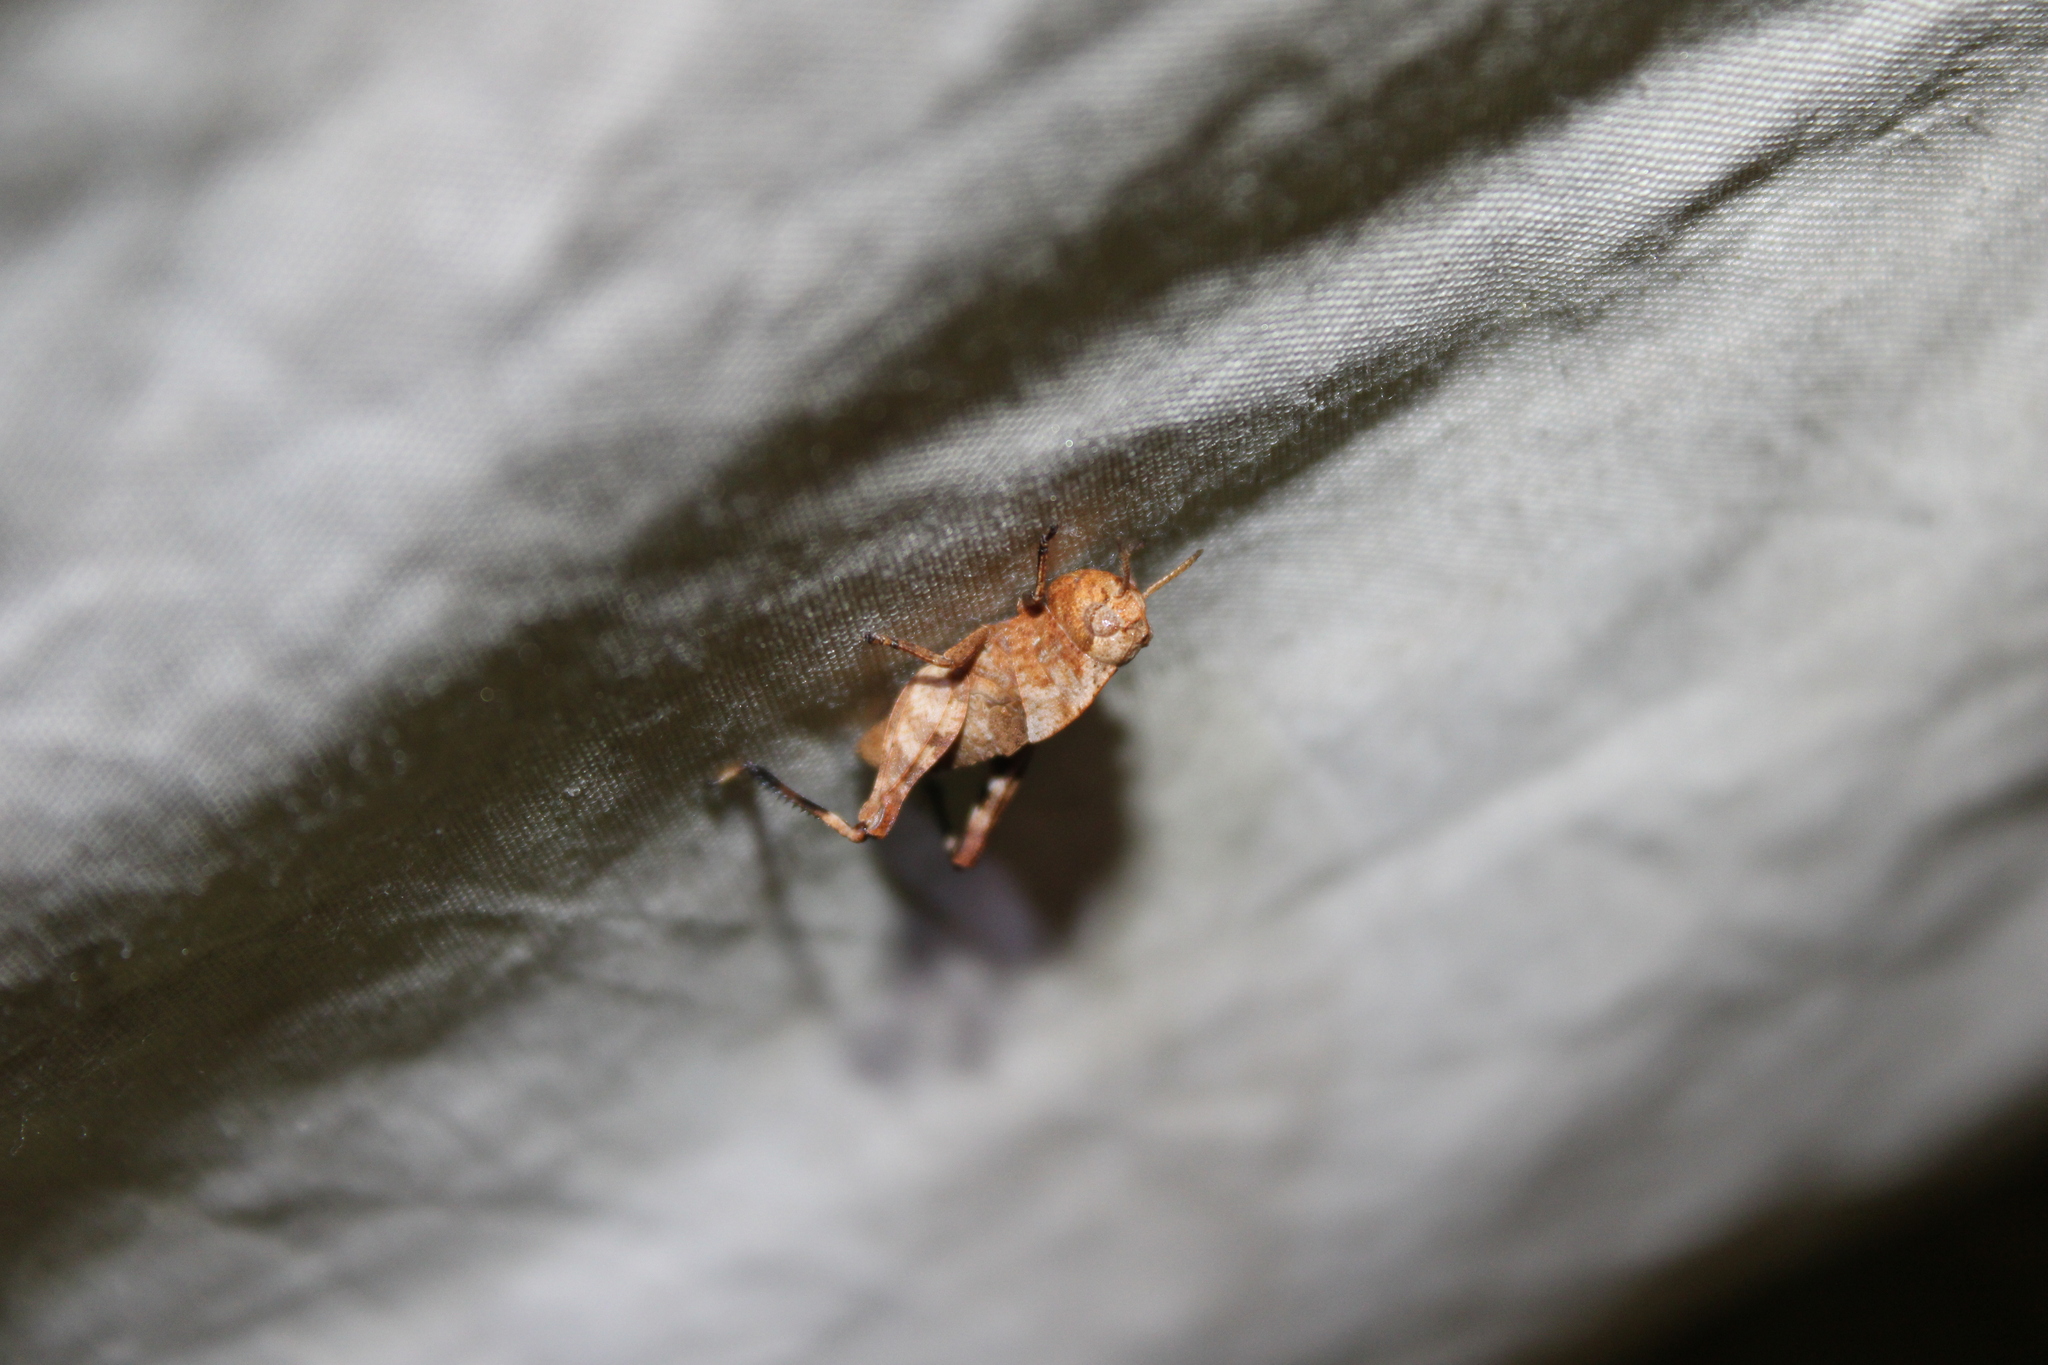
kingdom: Animalia
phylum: Arthropoda
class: Insecta
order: Orthoptera
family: Acrididae
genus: Arphia
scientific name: Arphia sulphurea
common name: Spring yellow-winged locust
